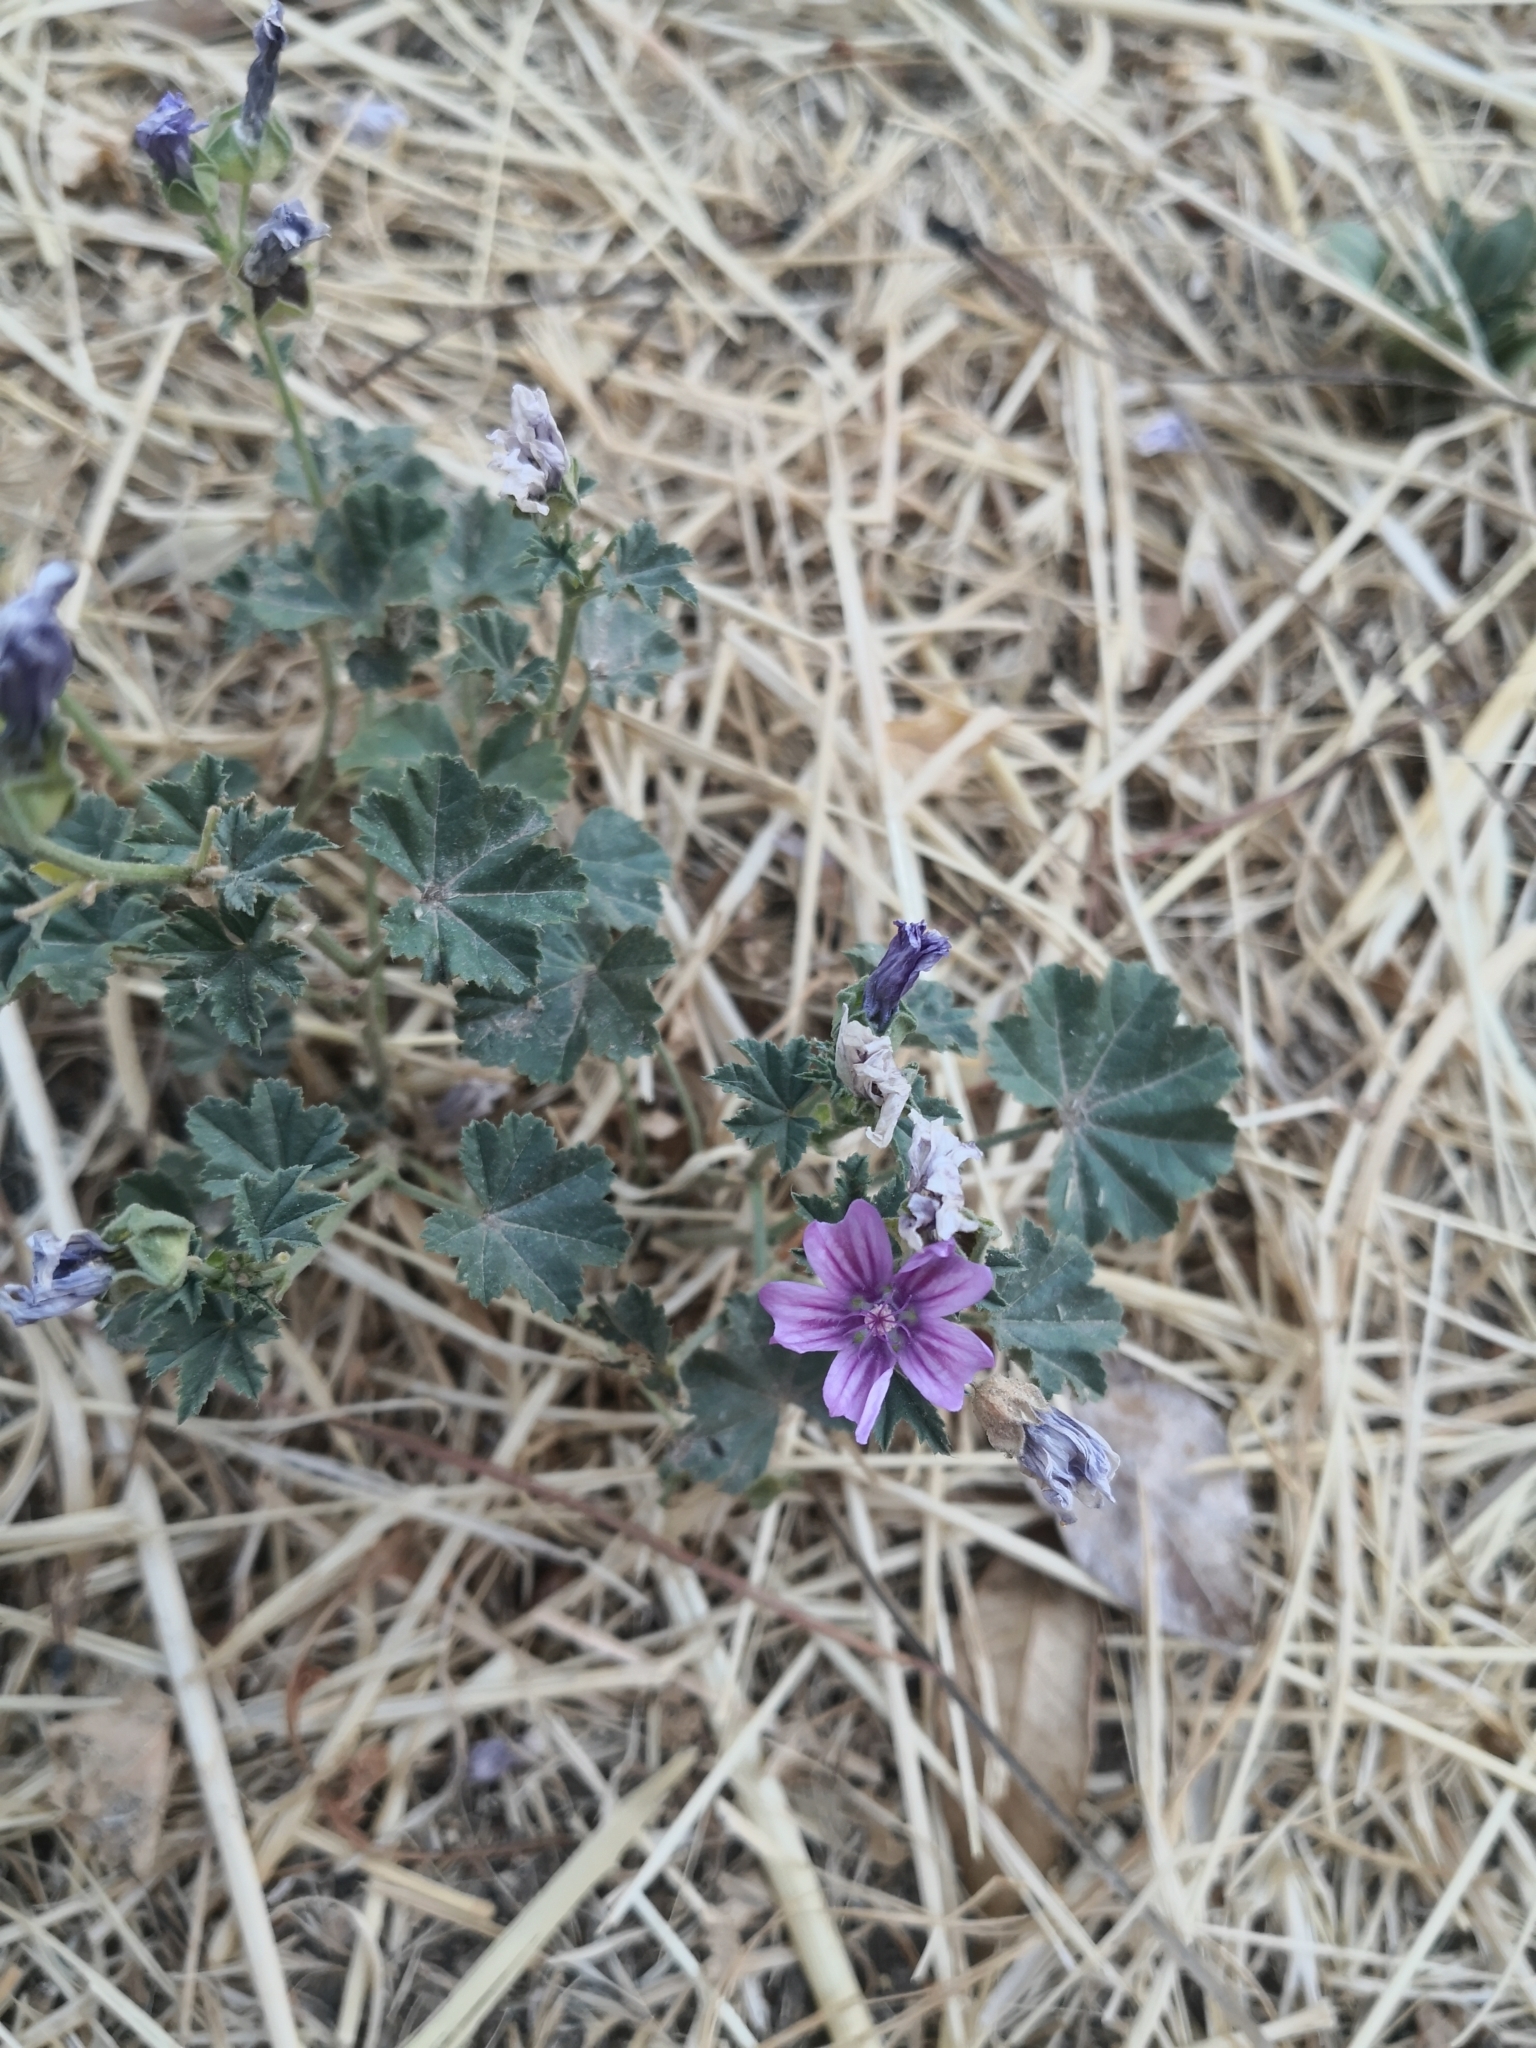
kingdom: Plantae
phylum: Tracheophyta
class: Magnoliopsida
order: Malvales
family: Malvaceae
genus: Malva
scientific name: Malva sylvestris
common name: Common mallow
